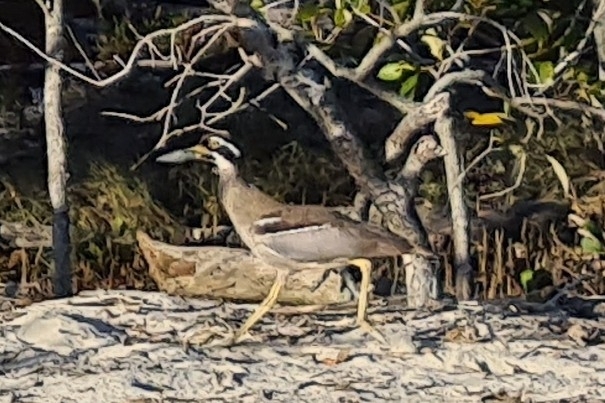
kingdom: Animalia
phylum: Chordata
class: Aves
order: Charadriiformes
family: Burhinidae
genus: Esacus
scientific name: Esacus magnirostris
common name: Beach stone-curlew
